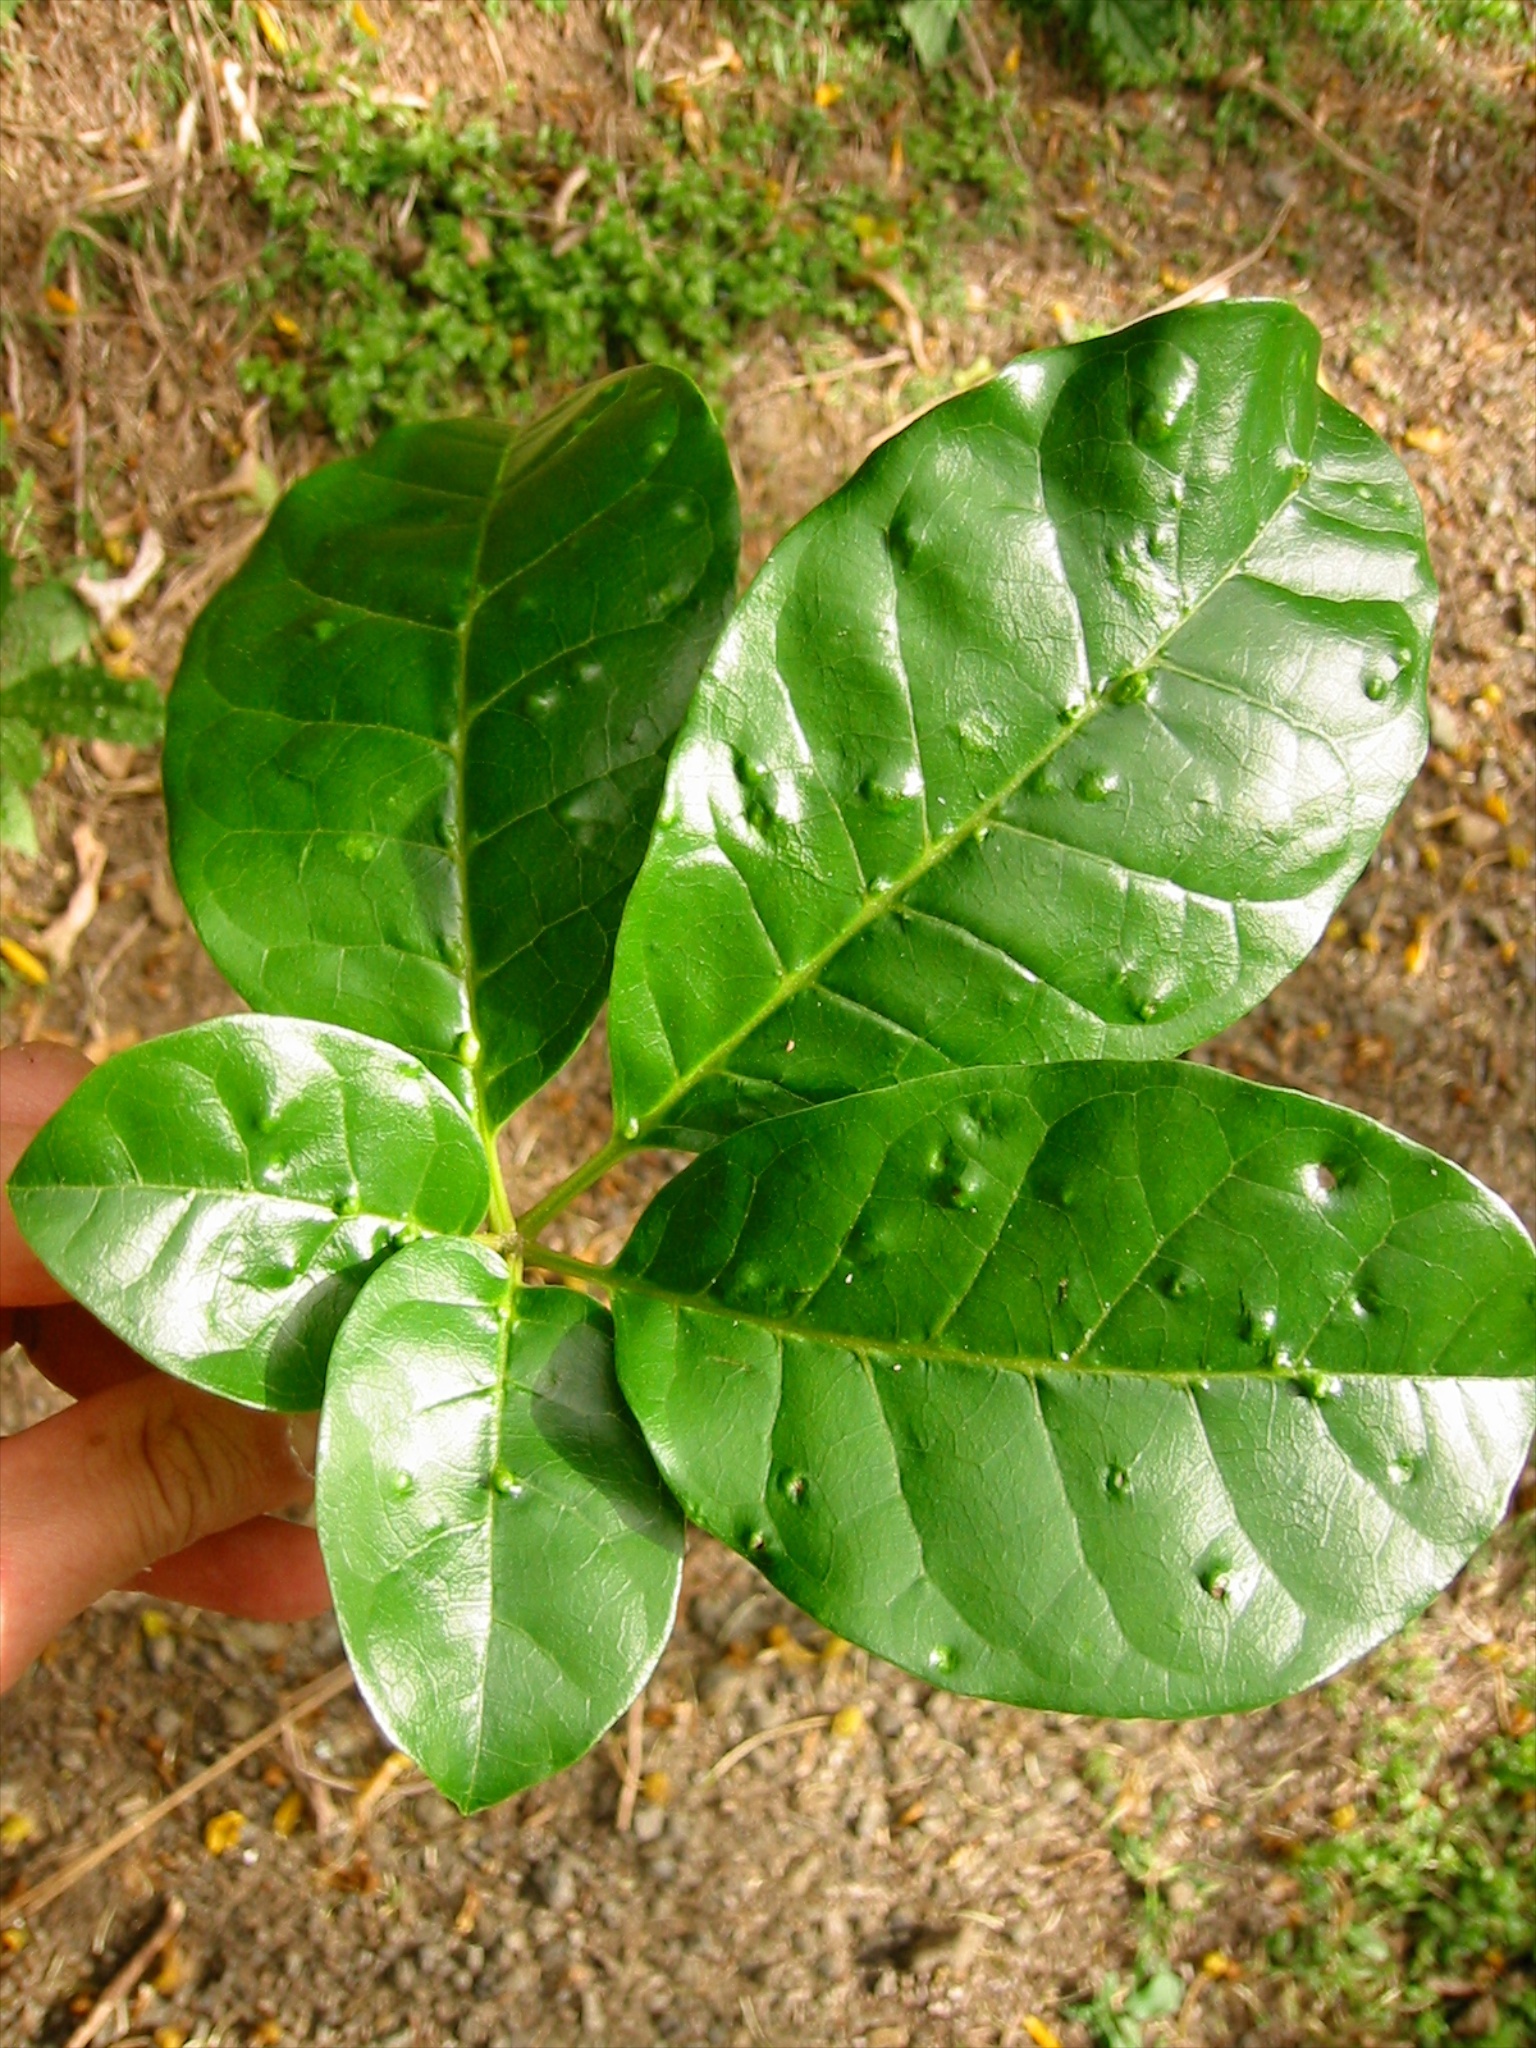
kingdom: Animalia
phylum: Arthropoda
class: Arachnida
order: Trombidiformes
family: Eriophyidae
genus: Acalitus
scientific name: Acalitus
